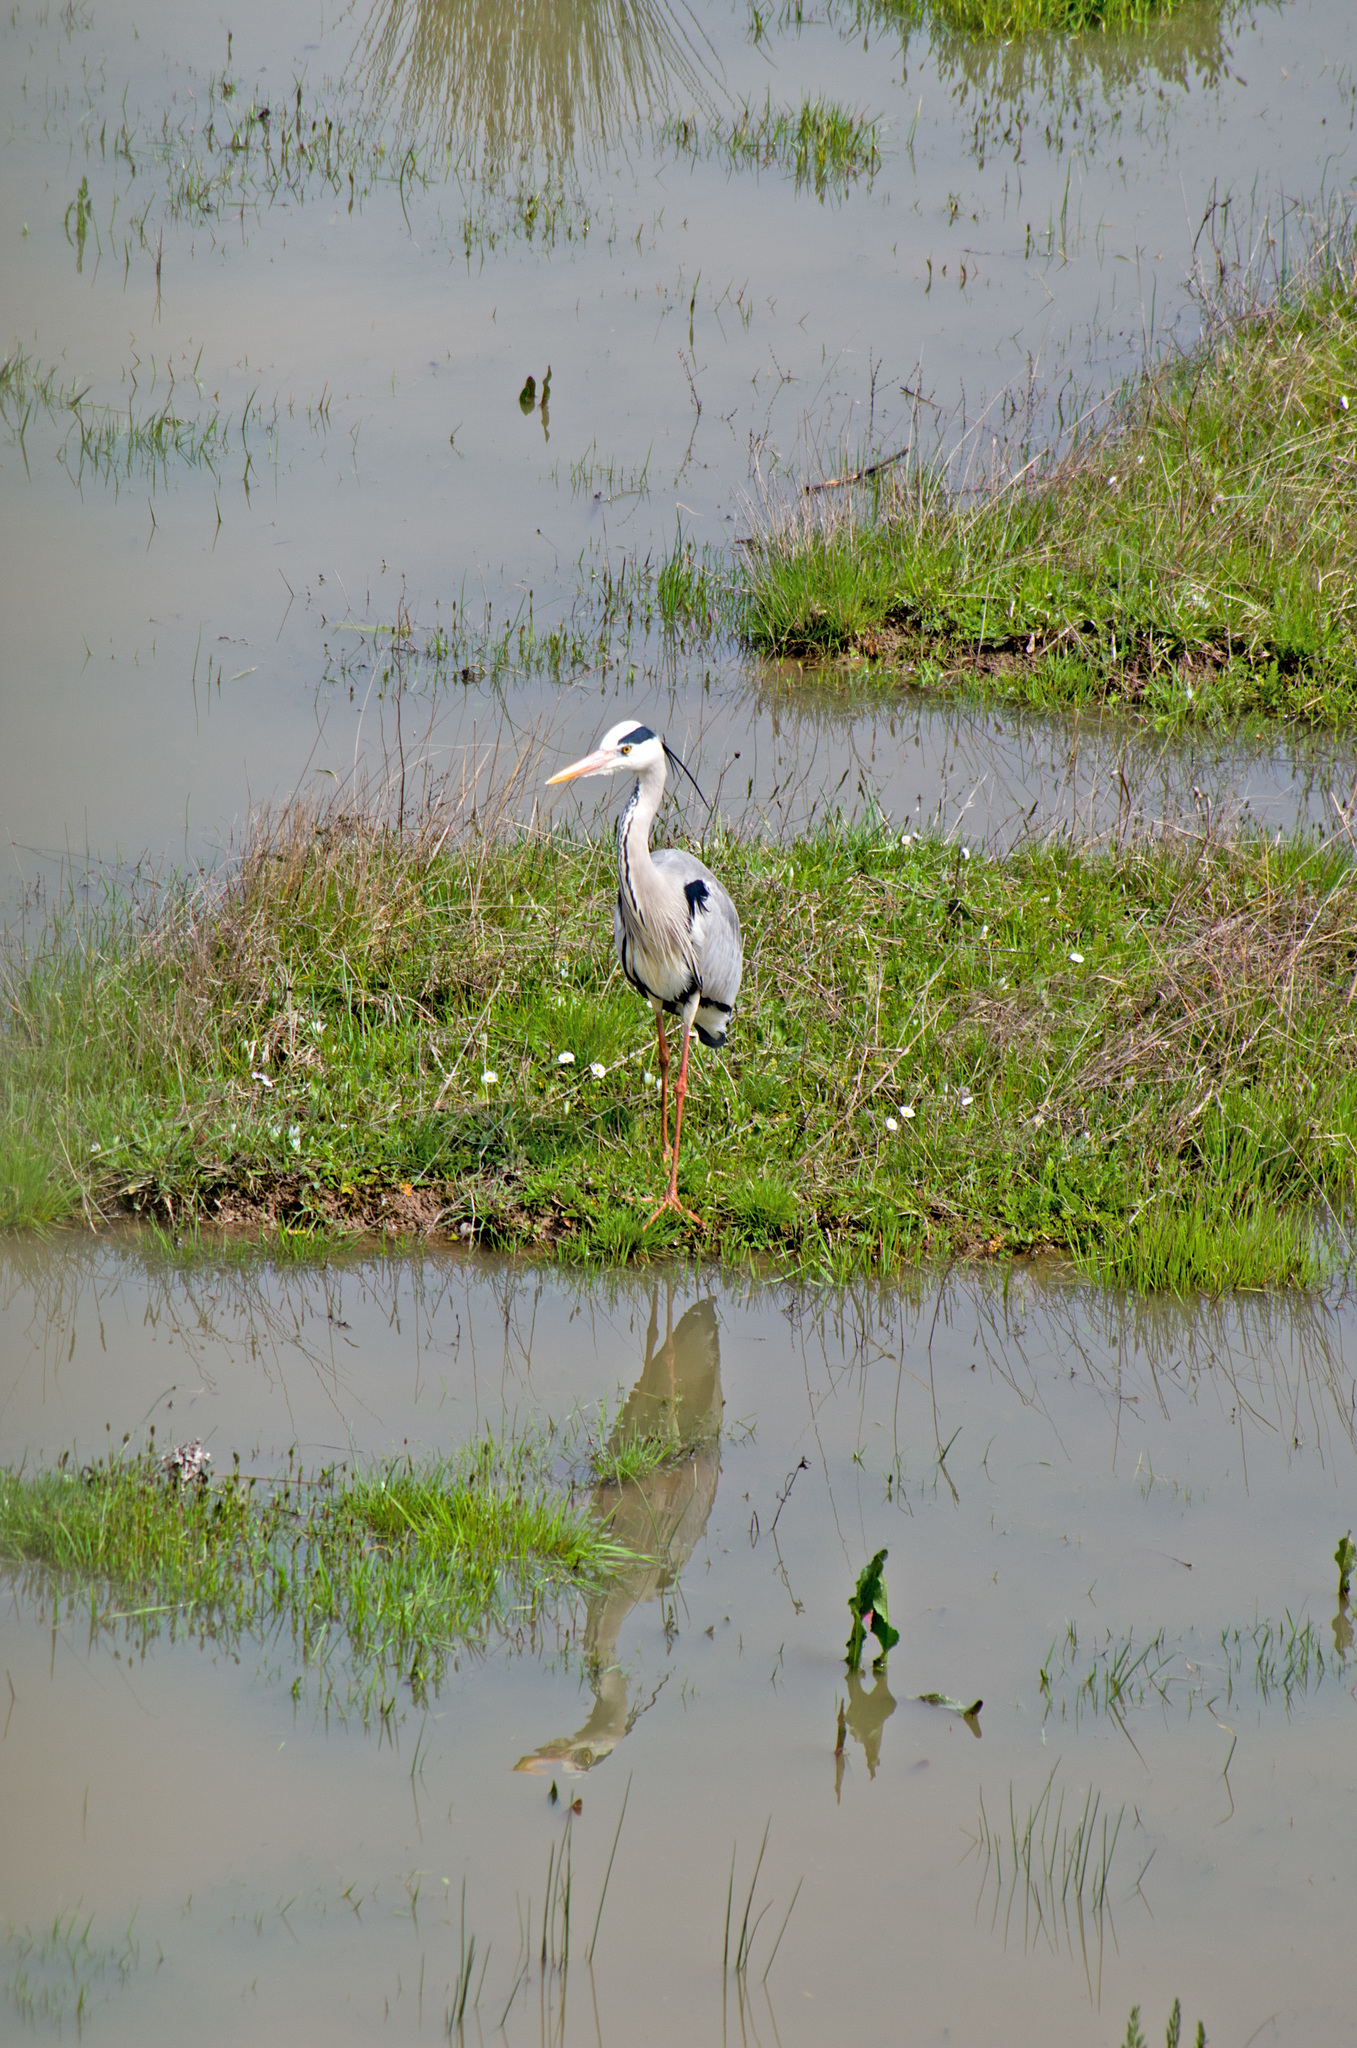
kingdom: Animalia
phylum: Chordata
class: Aves
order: Pelecaniformes
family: Ardeidae
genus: Ardea
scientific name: Ardea cinerea
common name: Grey heron
